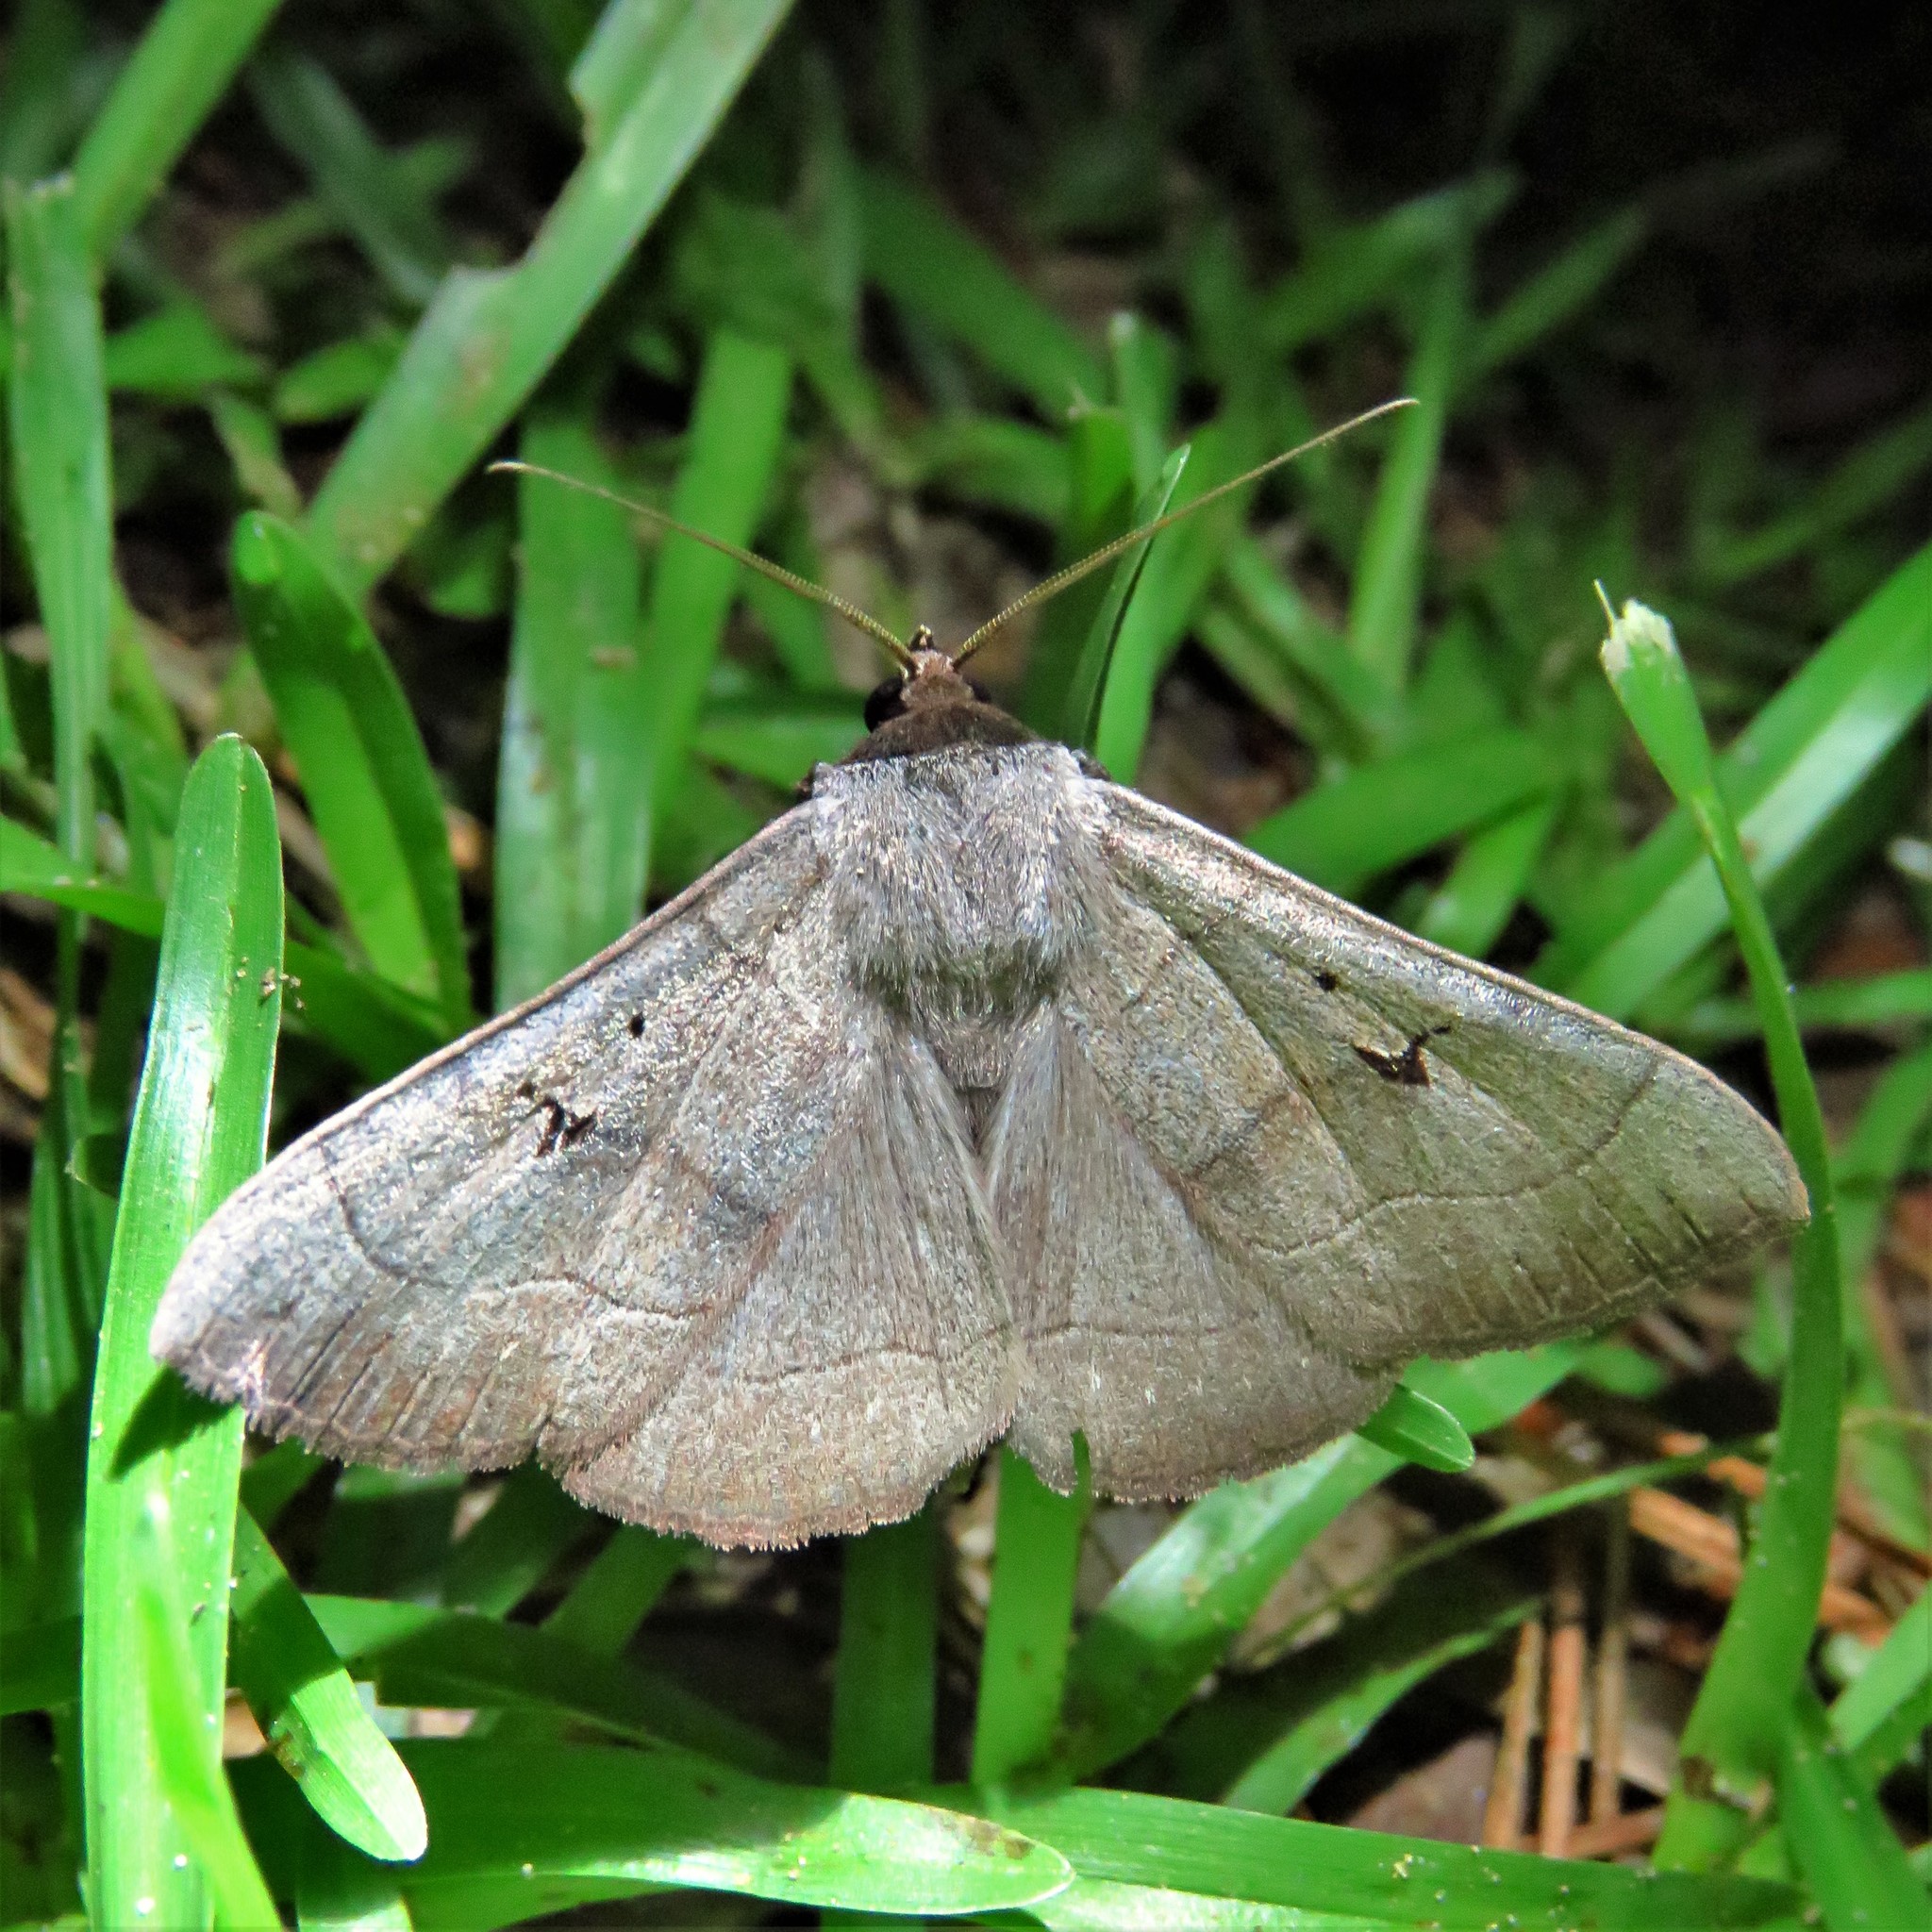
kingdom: Animalia
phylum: Arthropoda
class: Insecta
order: Lepidoptera
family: Erebidae
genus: Panopoda
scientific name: Panopoda carneicosta
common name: Brown panopoda moth
